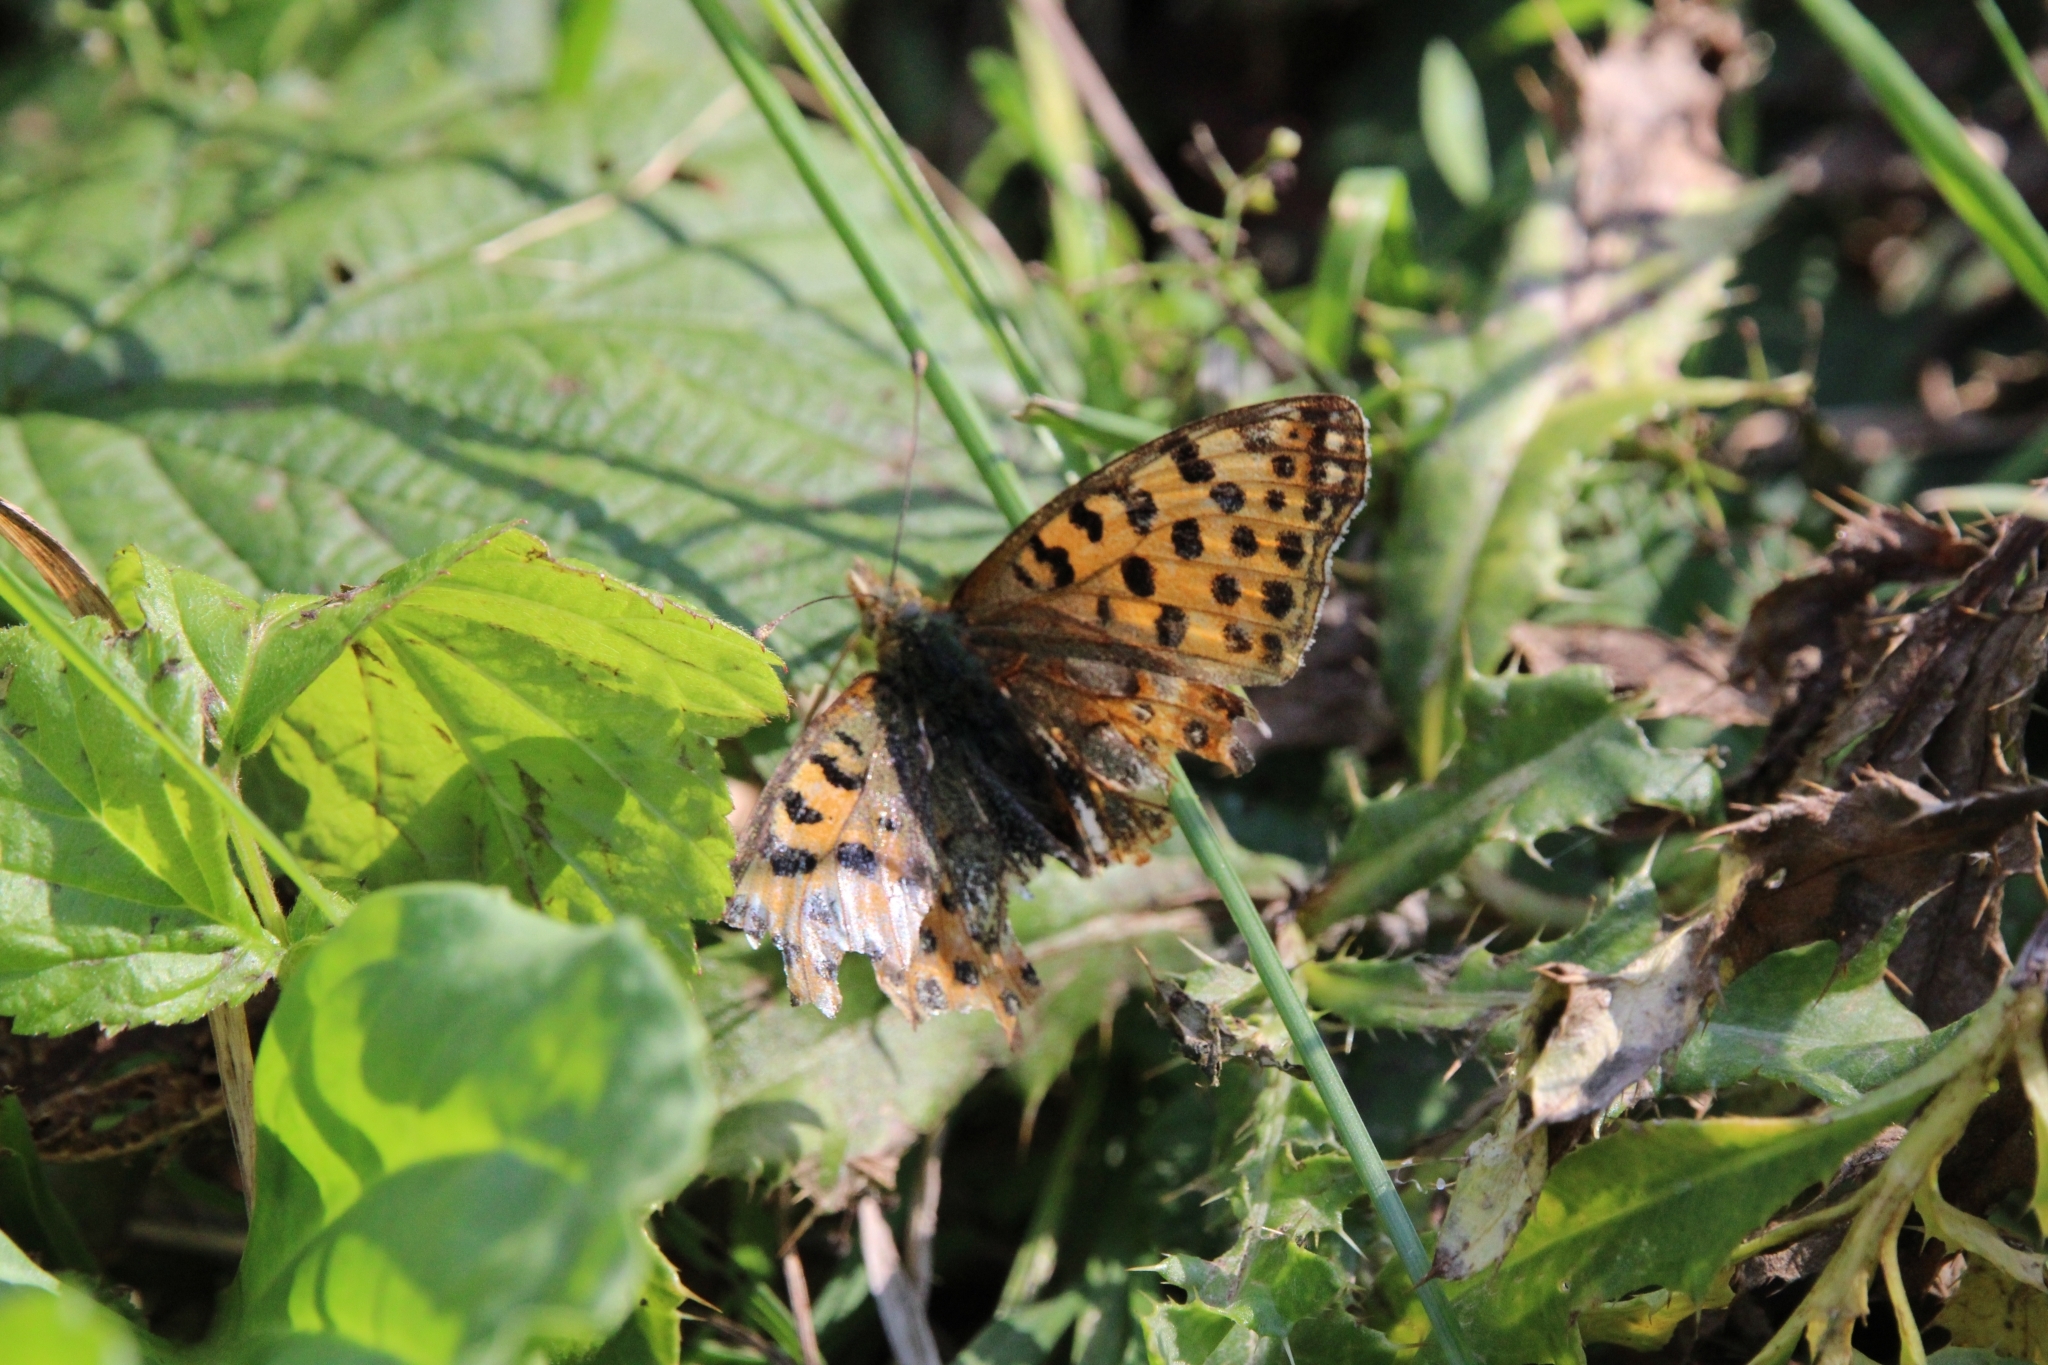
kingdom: Animalia
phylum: Arthropoda
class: Insecta
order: Lepidoptera
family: Nymphalidae
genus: Issoria
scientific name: Issoria lathonia
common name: Queen of spain fritillary
